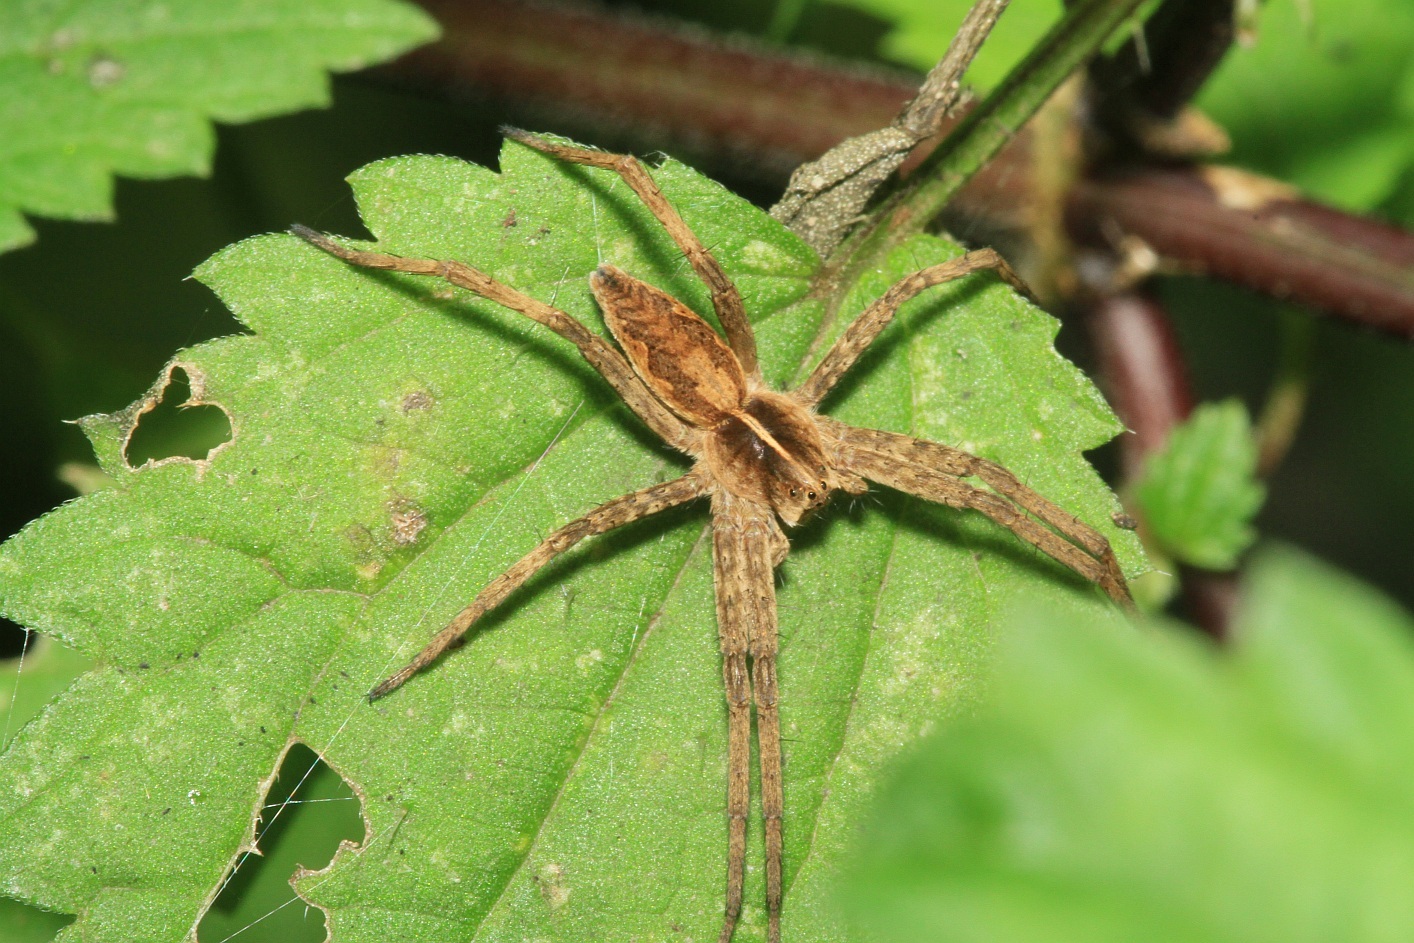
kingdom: Animalia
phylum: Arthropoda
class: Arachnida
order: Araneae
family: Pisauridae
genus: Pisaura
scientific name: Pisaura mirabilis
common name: Tent spider
